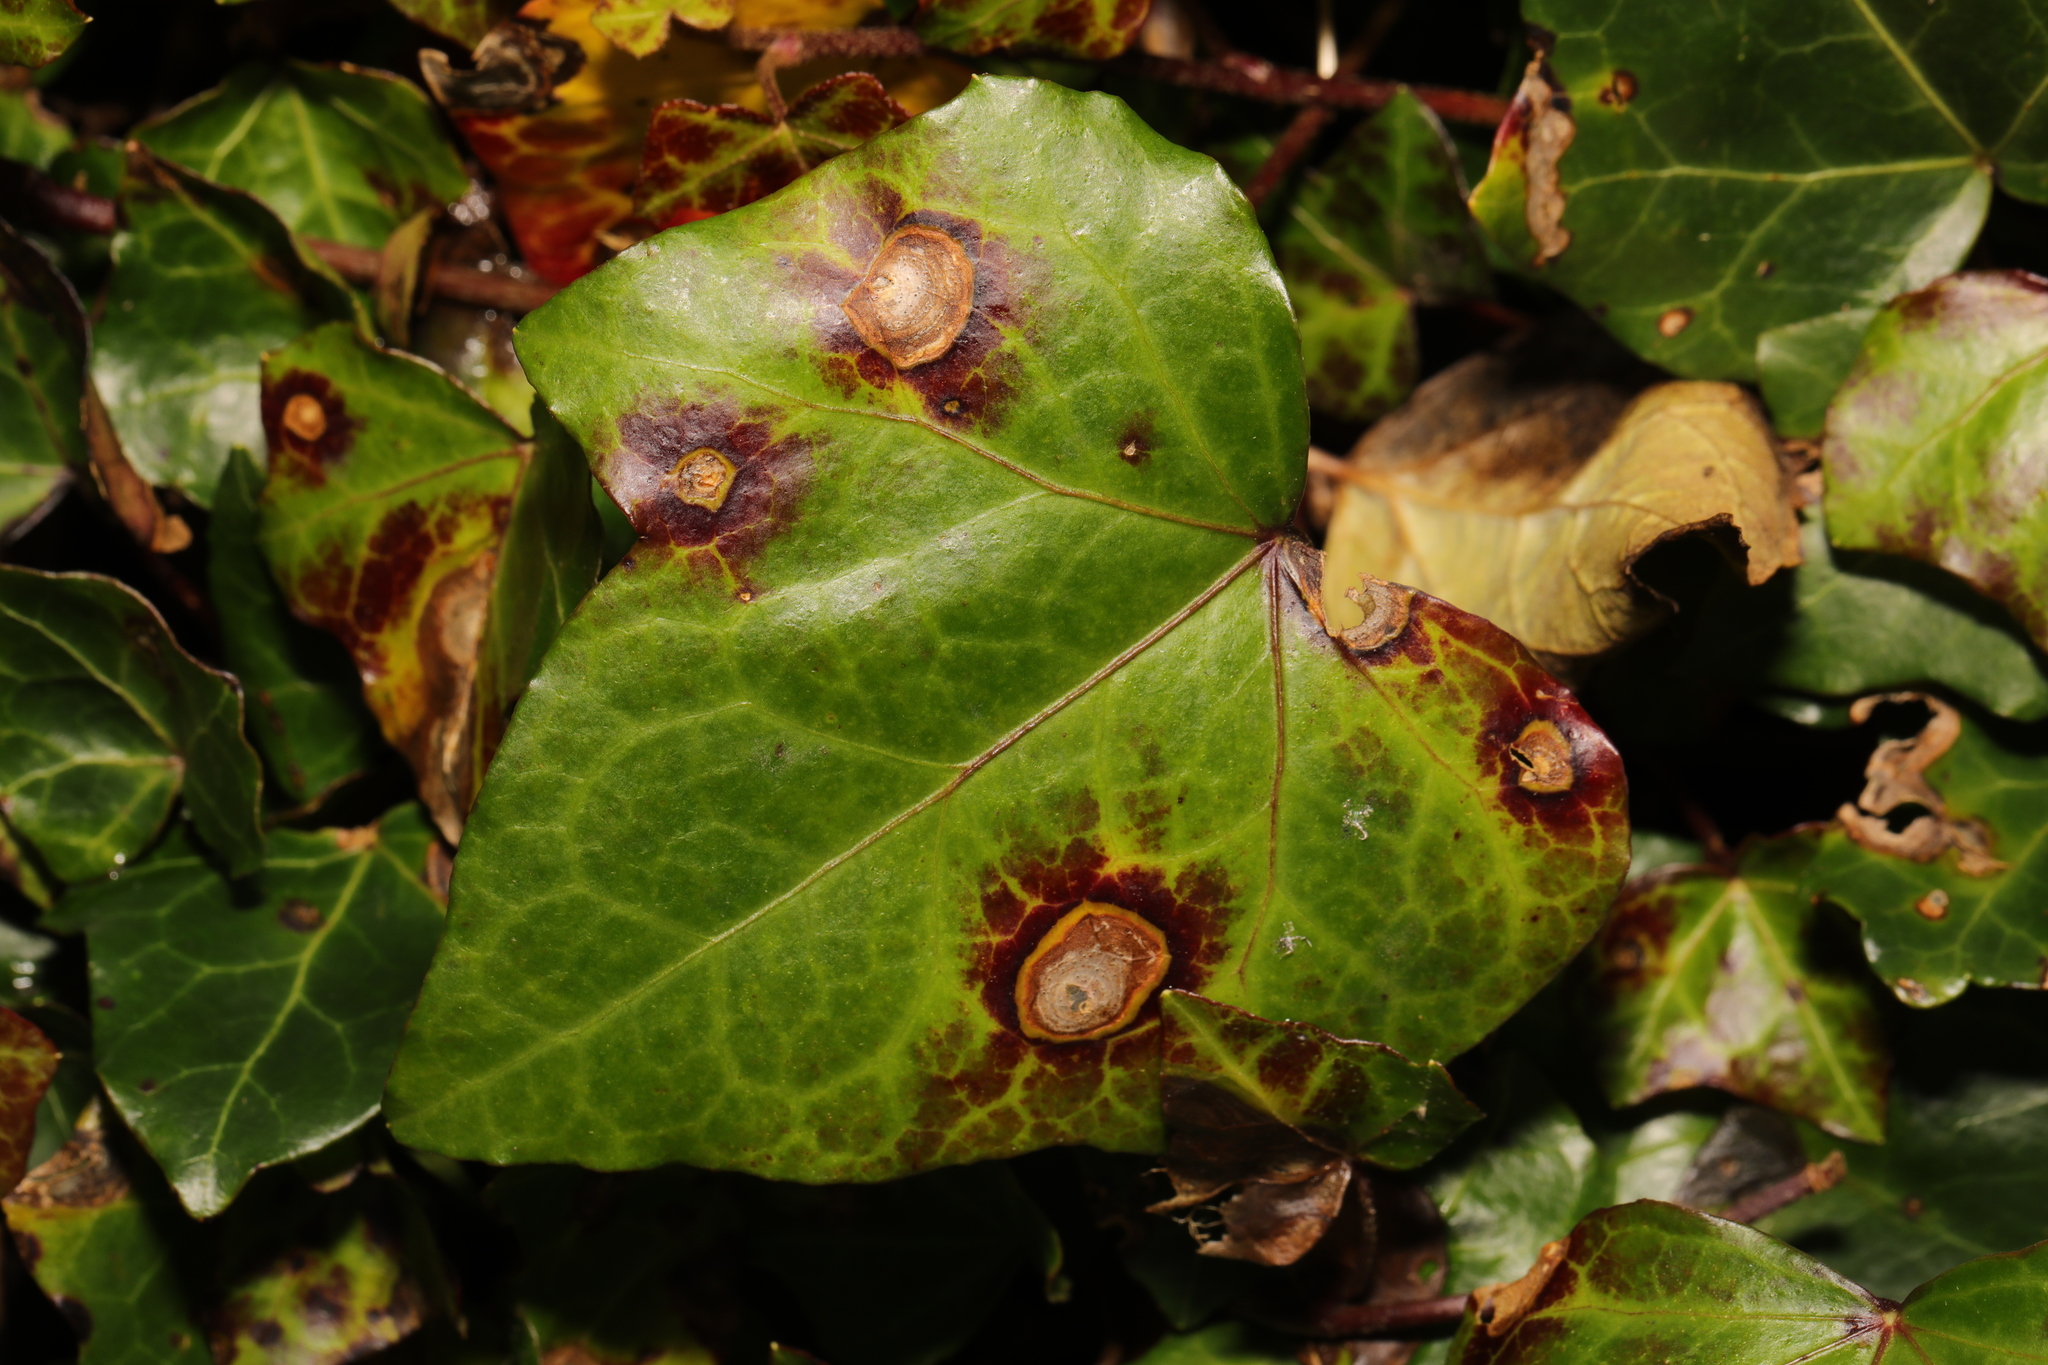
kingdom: Fungi
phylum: Ascomycota
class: Dothideomycetes
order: Pleosporales
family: Didymellaceae
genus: Boeremia
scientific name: Boeremia hedericola
